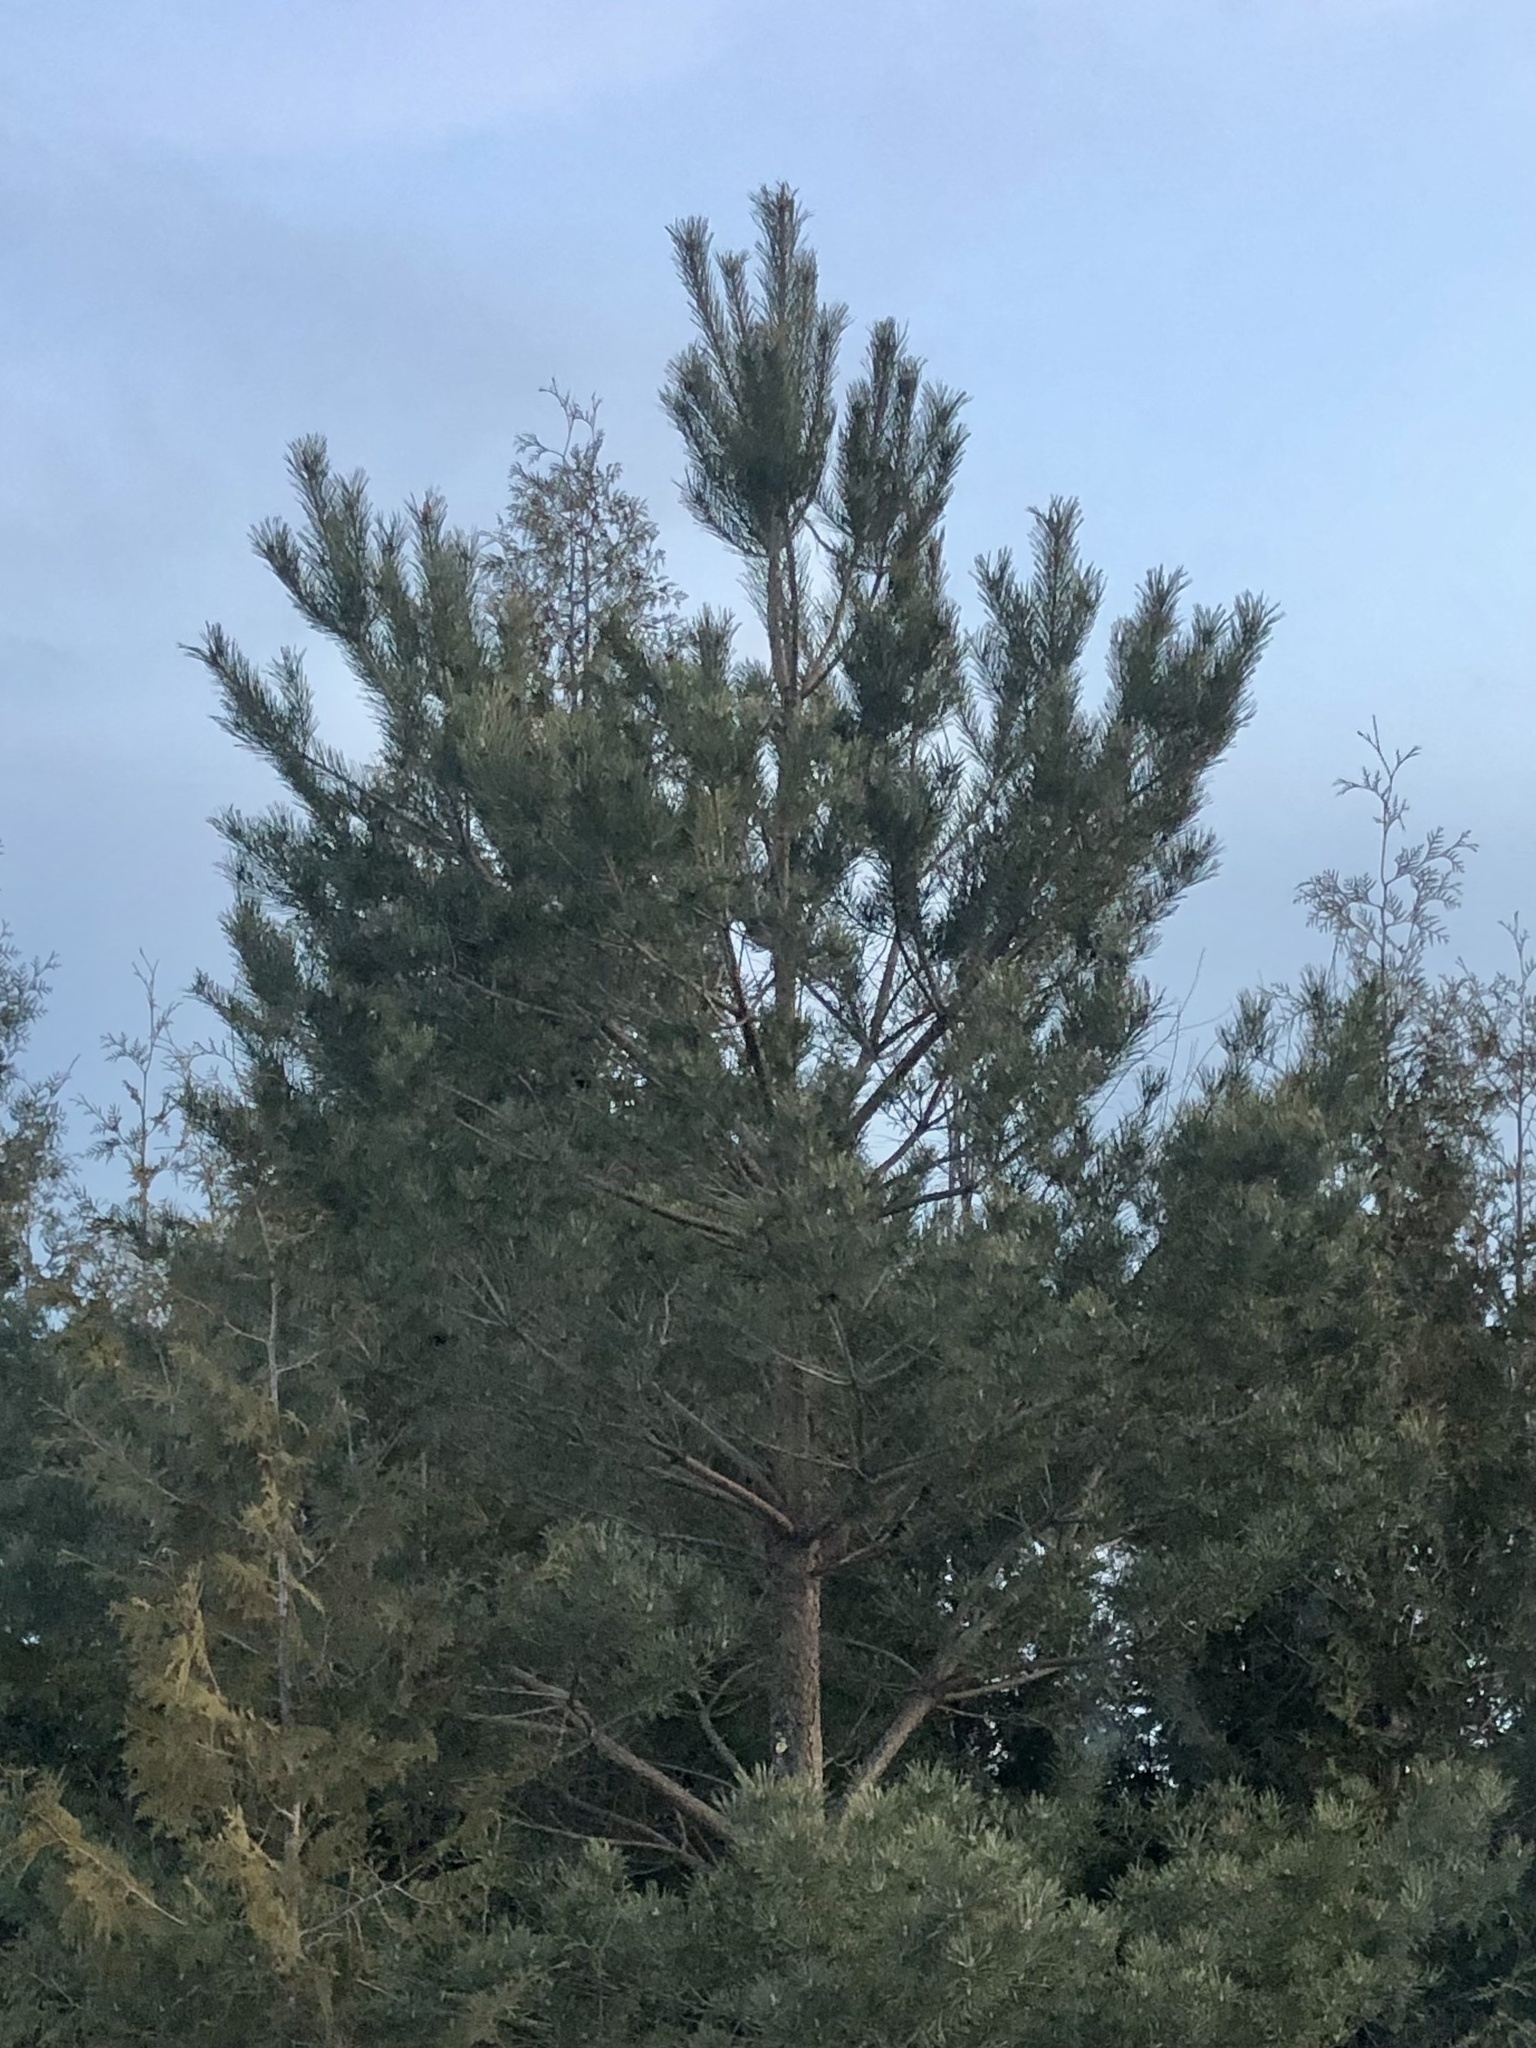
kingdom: Plantae
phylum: Tracheophyta
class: Pinopsida
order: Pinales
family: Pinaceae
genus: Pinus
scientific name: Pinus sylvestris
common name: Scots pine
